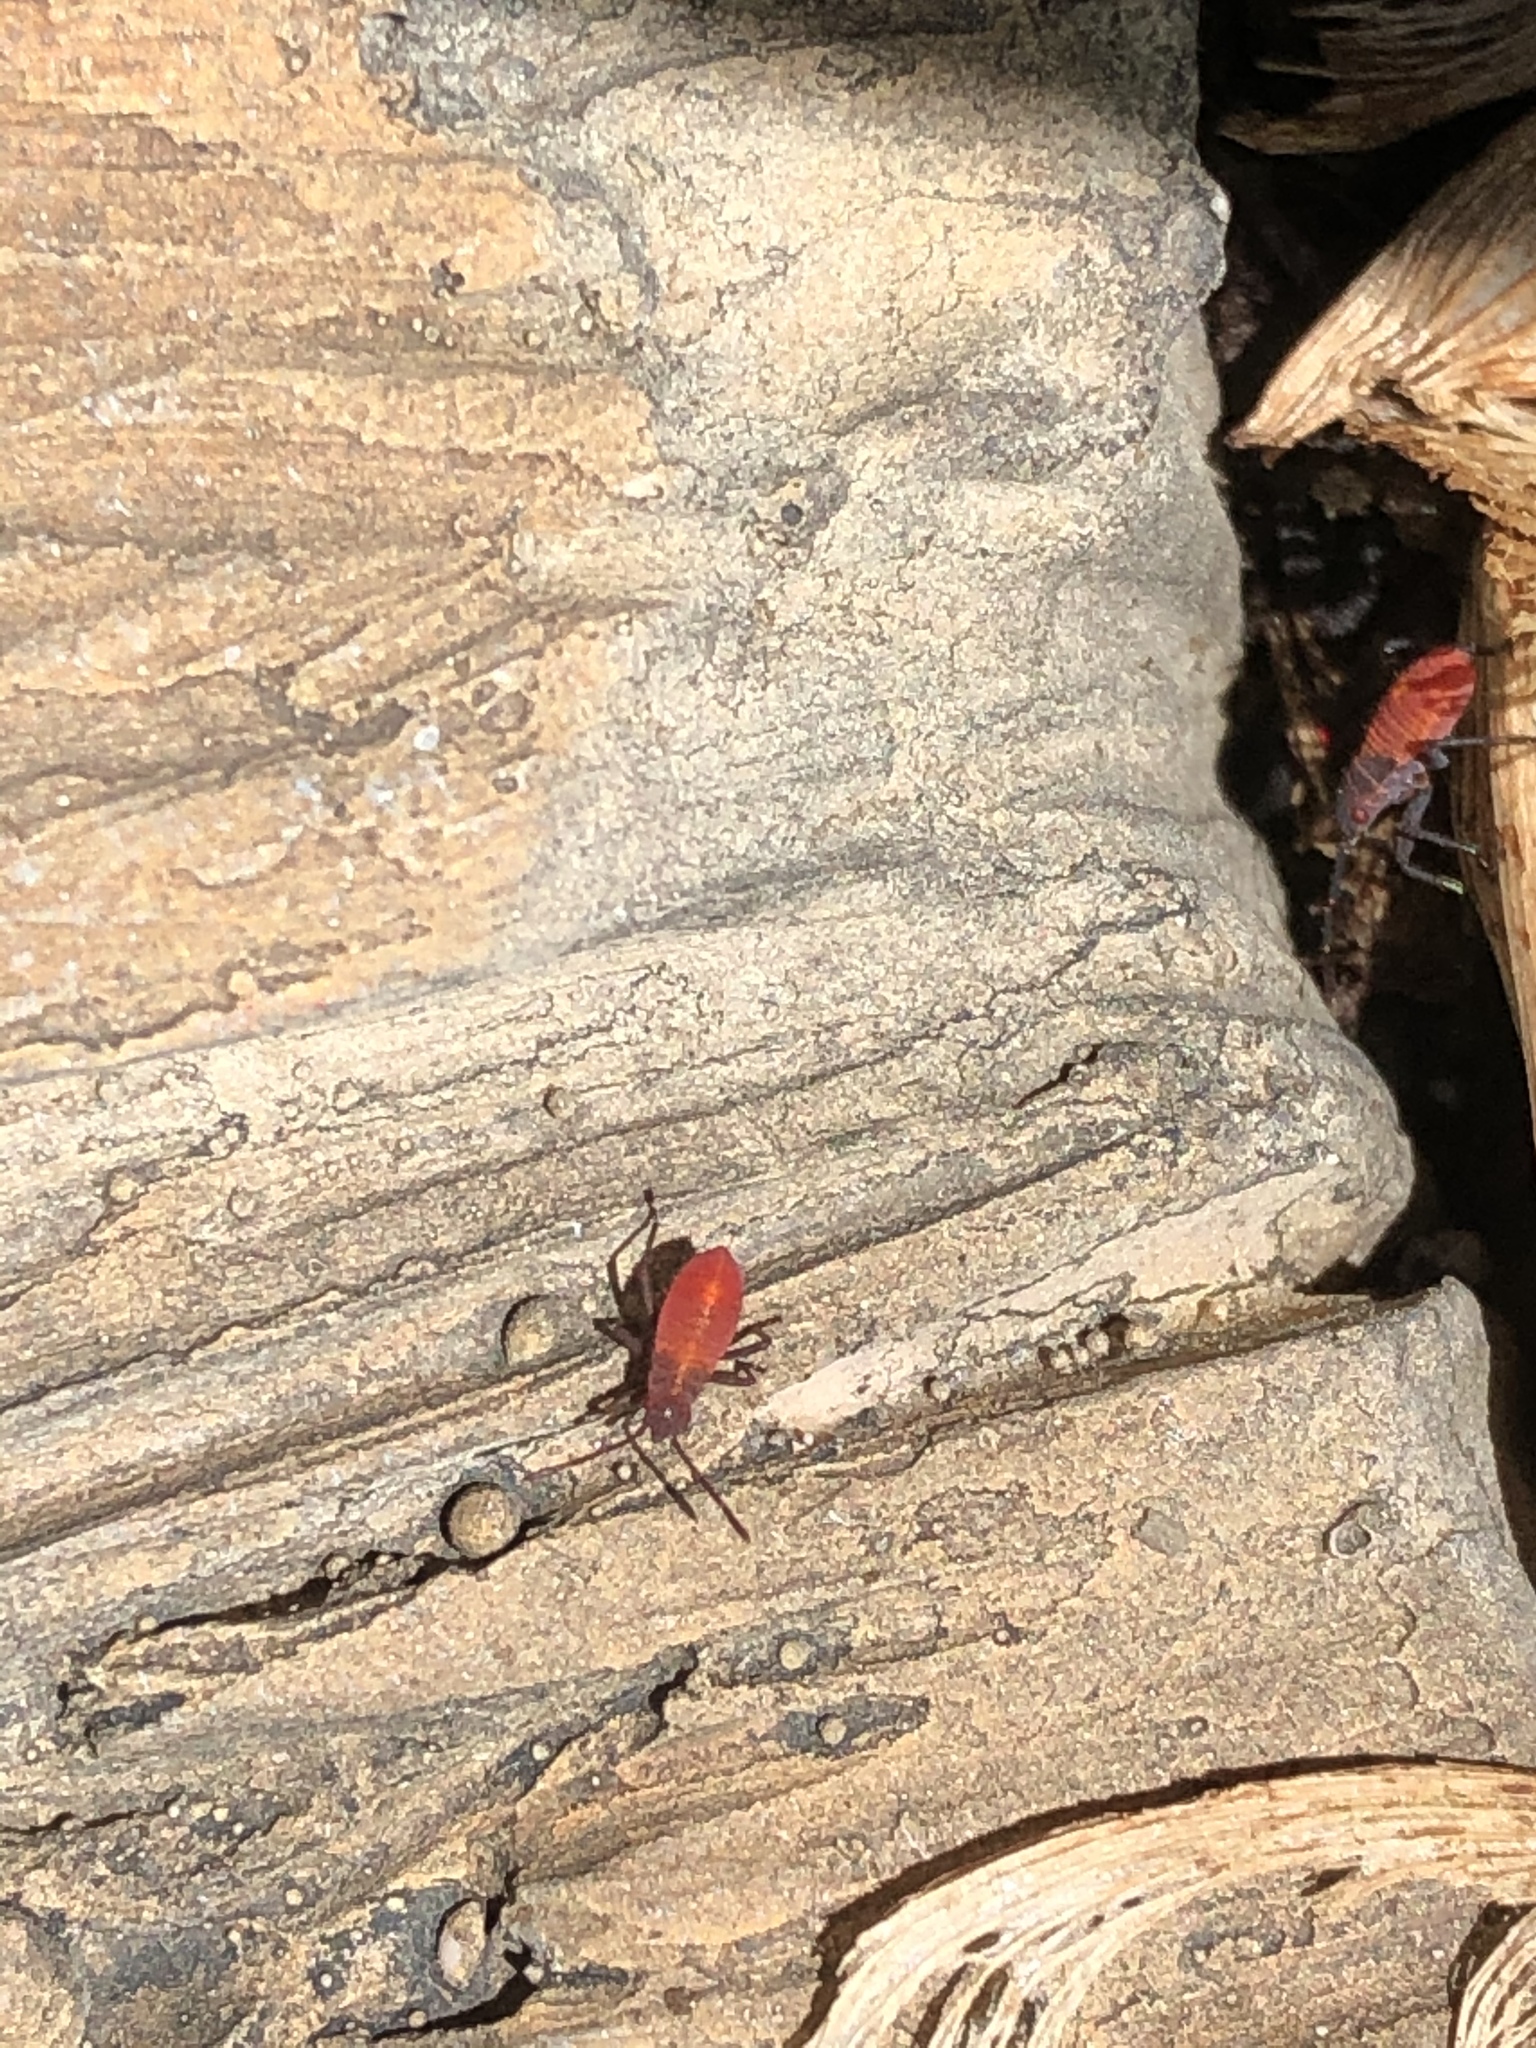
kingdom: Animalia
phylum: Arthropoda
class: Insecta
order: Hemiptera
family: Rhopalidae
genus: Boisea
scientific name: Boisea trivittata
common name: Boxelder bug
